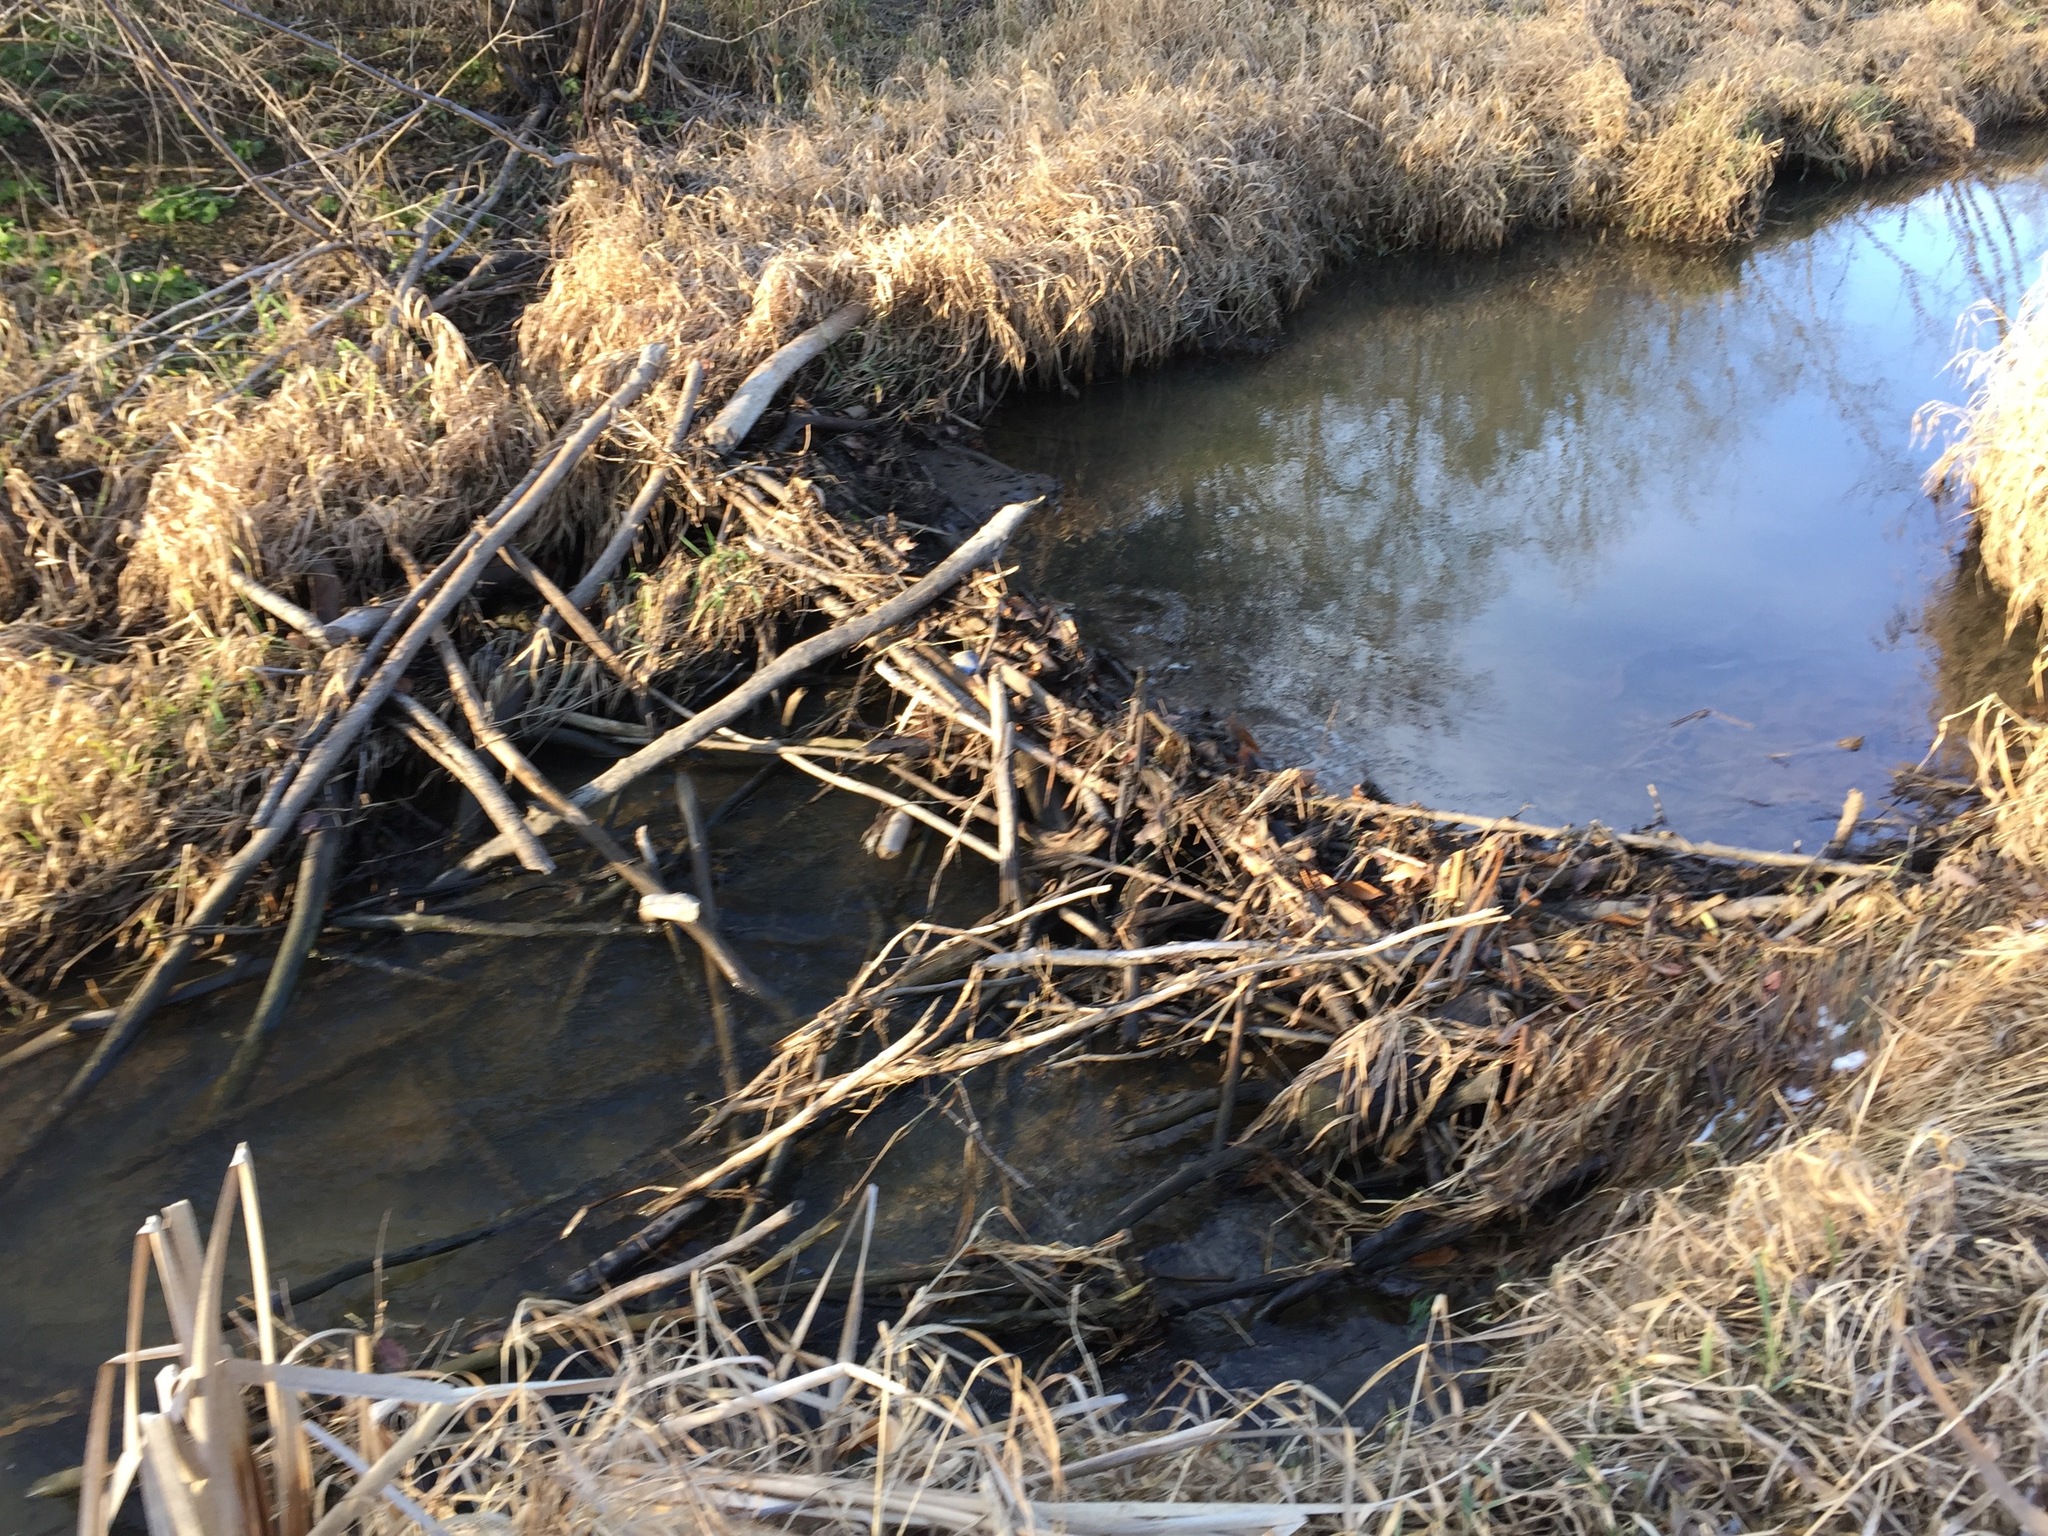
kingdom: Animalia
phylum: Chordata
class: Mammalia
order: Rodentia
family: Castoridae
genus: Castor
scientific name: Castor canadensis
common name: American beaver
